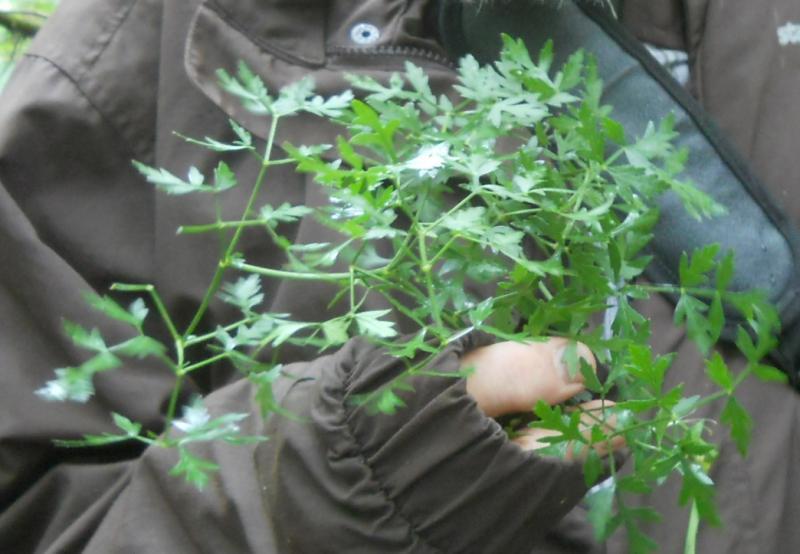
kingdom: Plantae
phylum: Tracheophyta
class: Magnoliopsida
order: Apiales
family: Apiaceae
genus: Oreoselinum
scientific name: Oreoselinum nigrum
